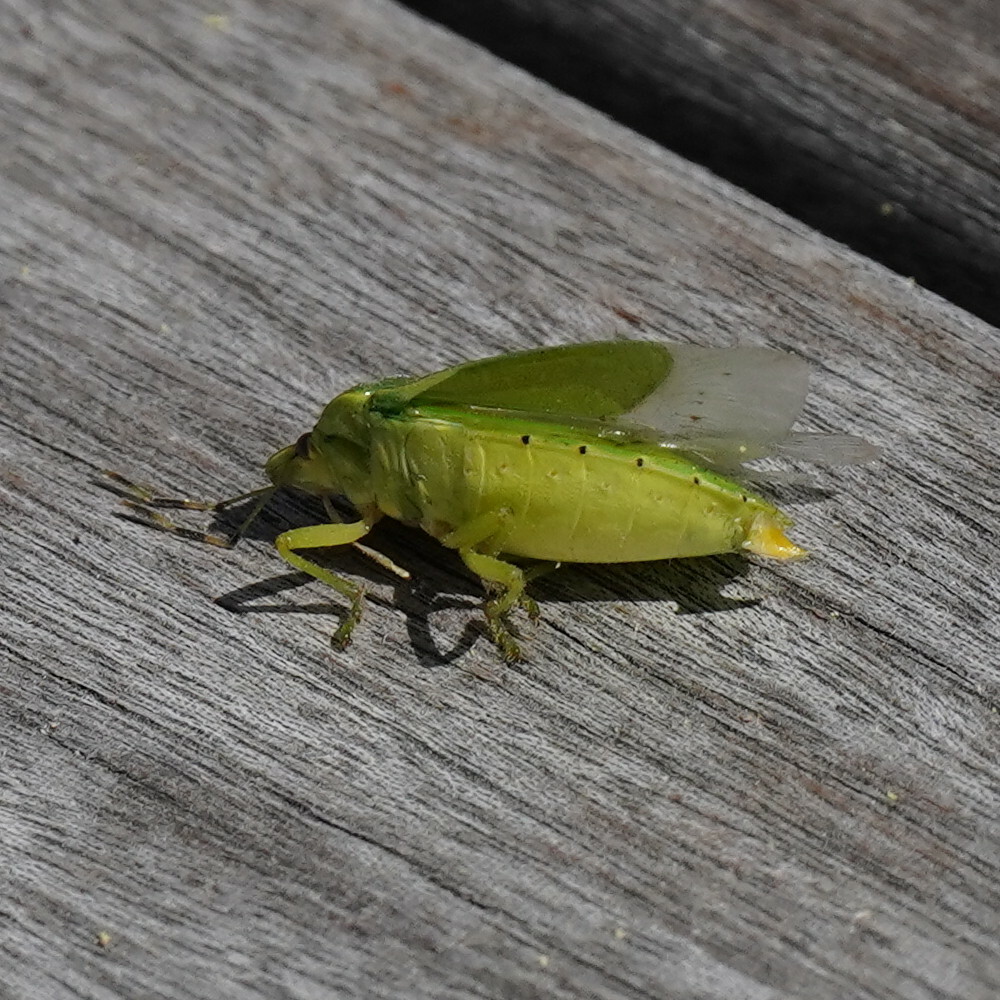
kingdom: Animalia
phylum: Arthropoda
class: Insecta
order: Hemiptera
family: Pentatomidae
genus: Chinavia
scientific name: Chinavia hilaris
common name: Green stink bug
